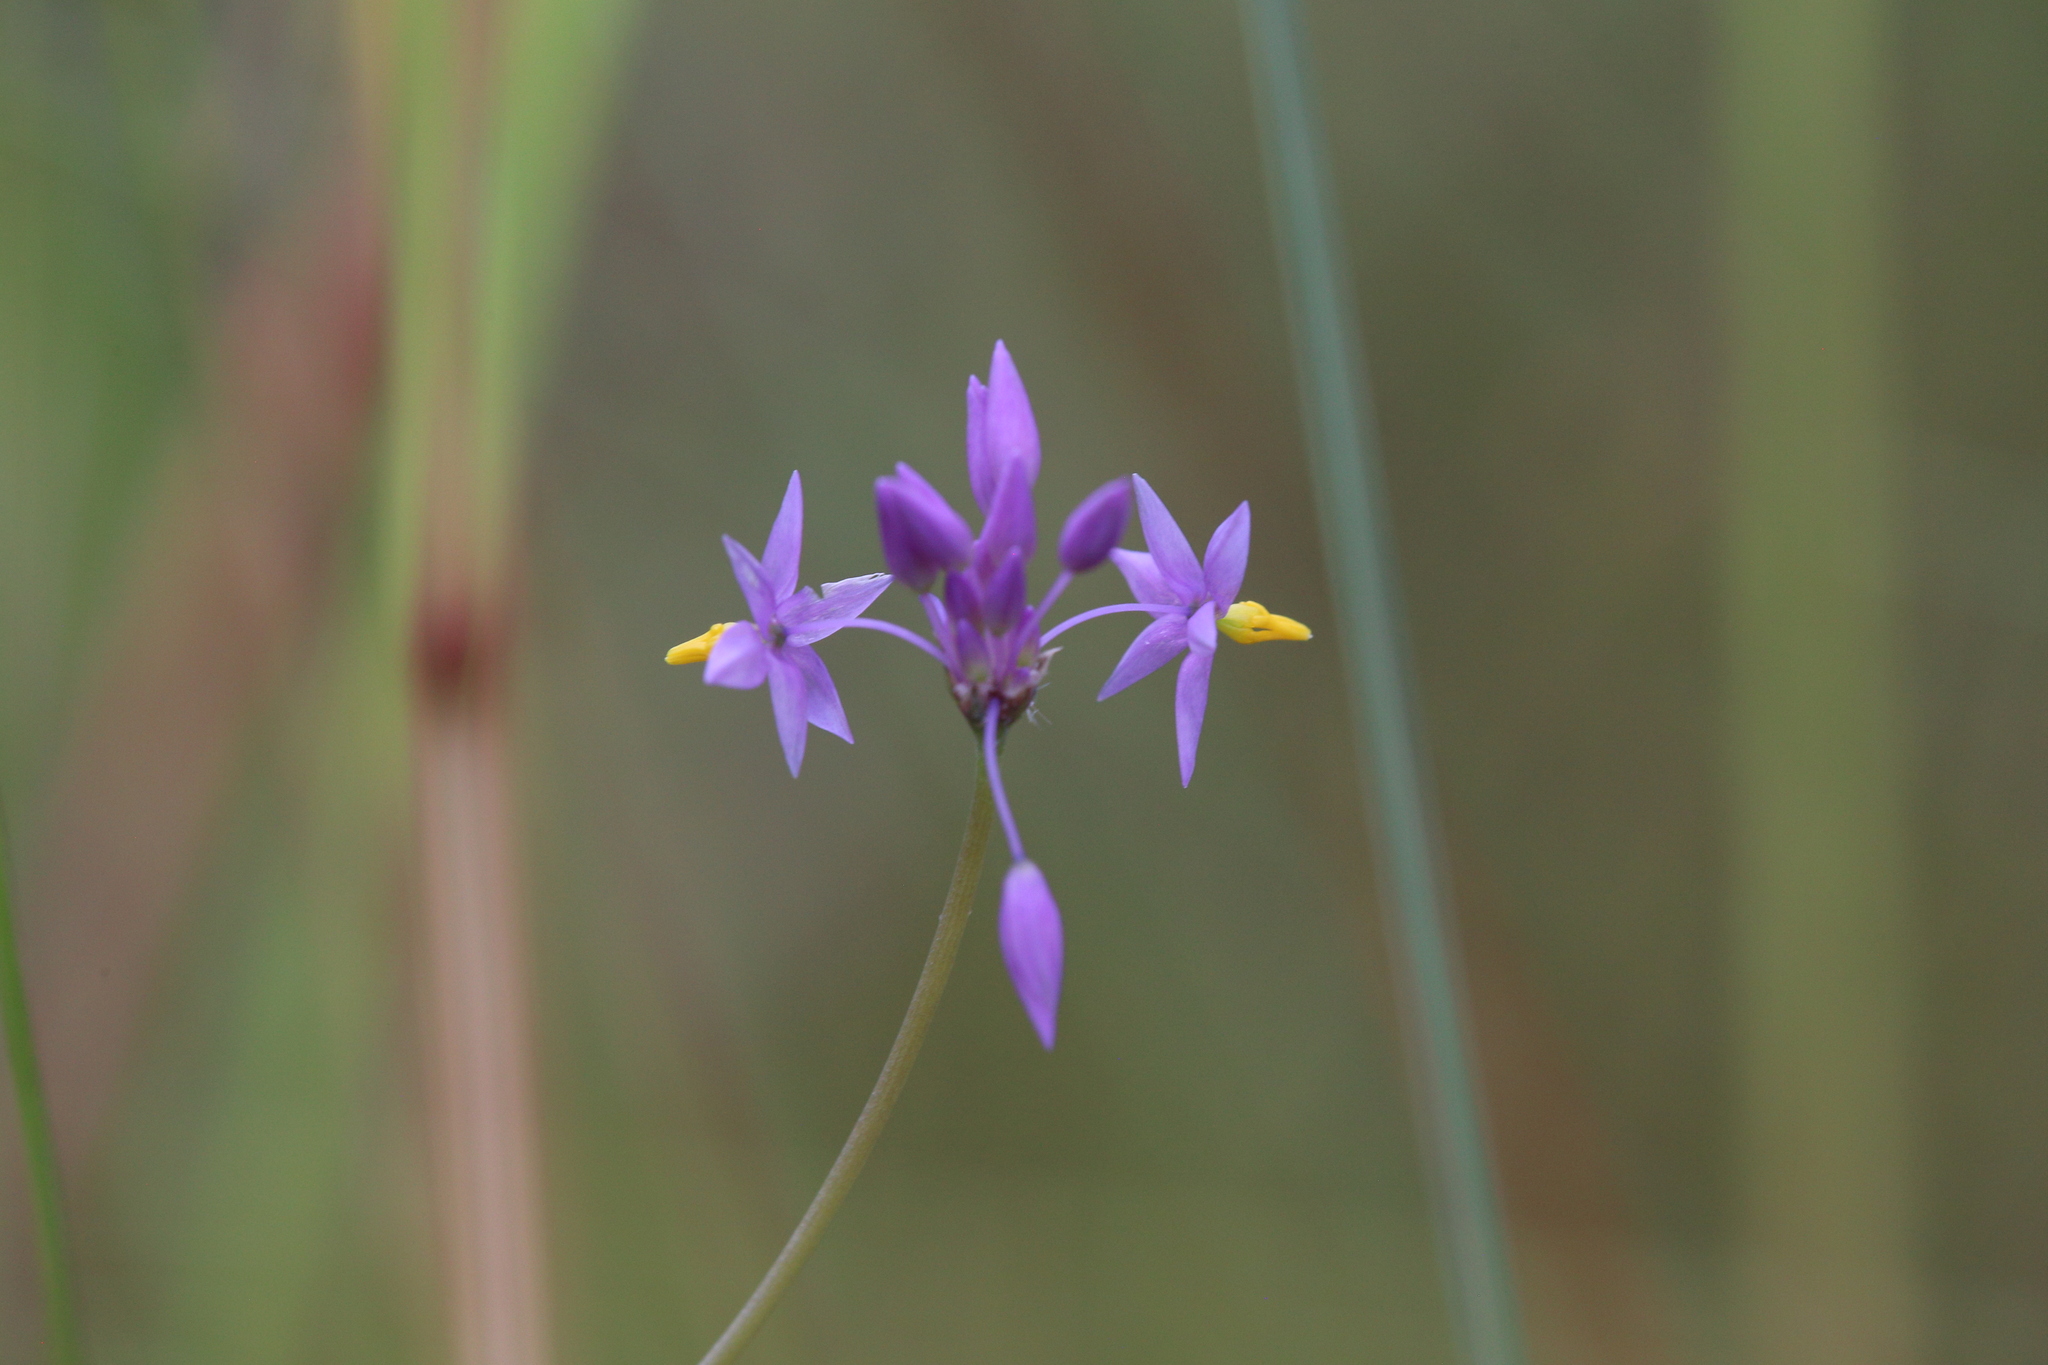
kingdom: Plantae
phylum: Tracheophyta
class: Liliopsida
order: Asparagales
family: Asparagaceae
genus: Sowerbaea
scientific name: Sowerbaea alliacea
